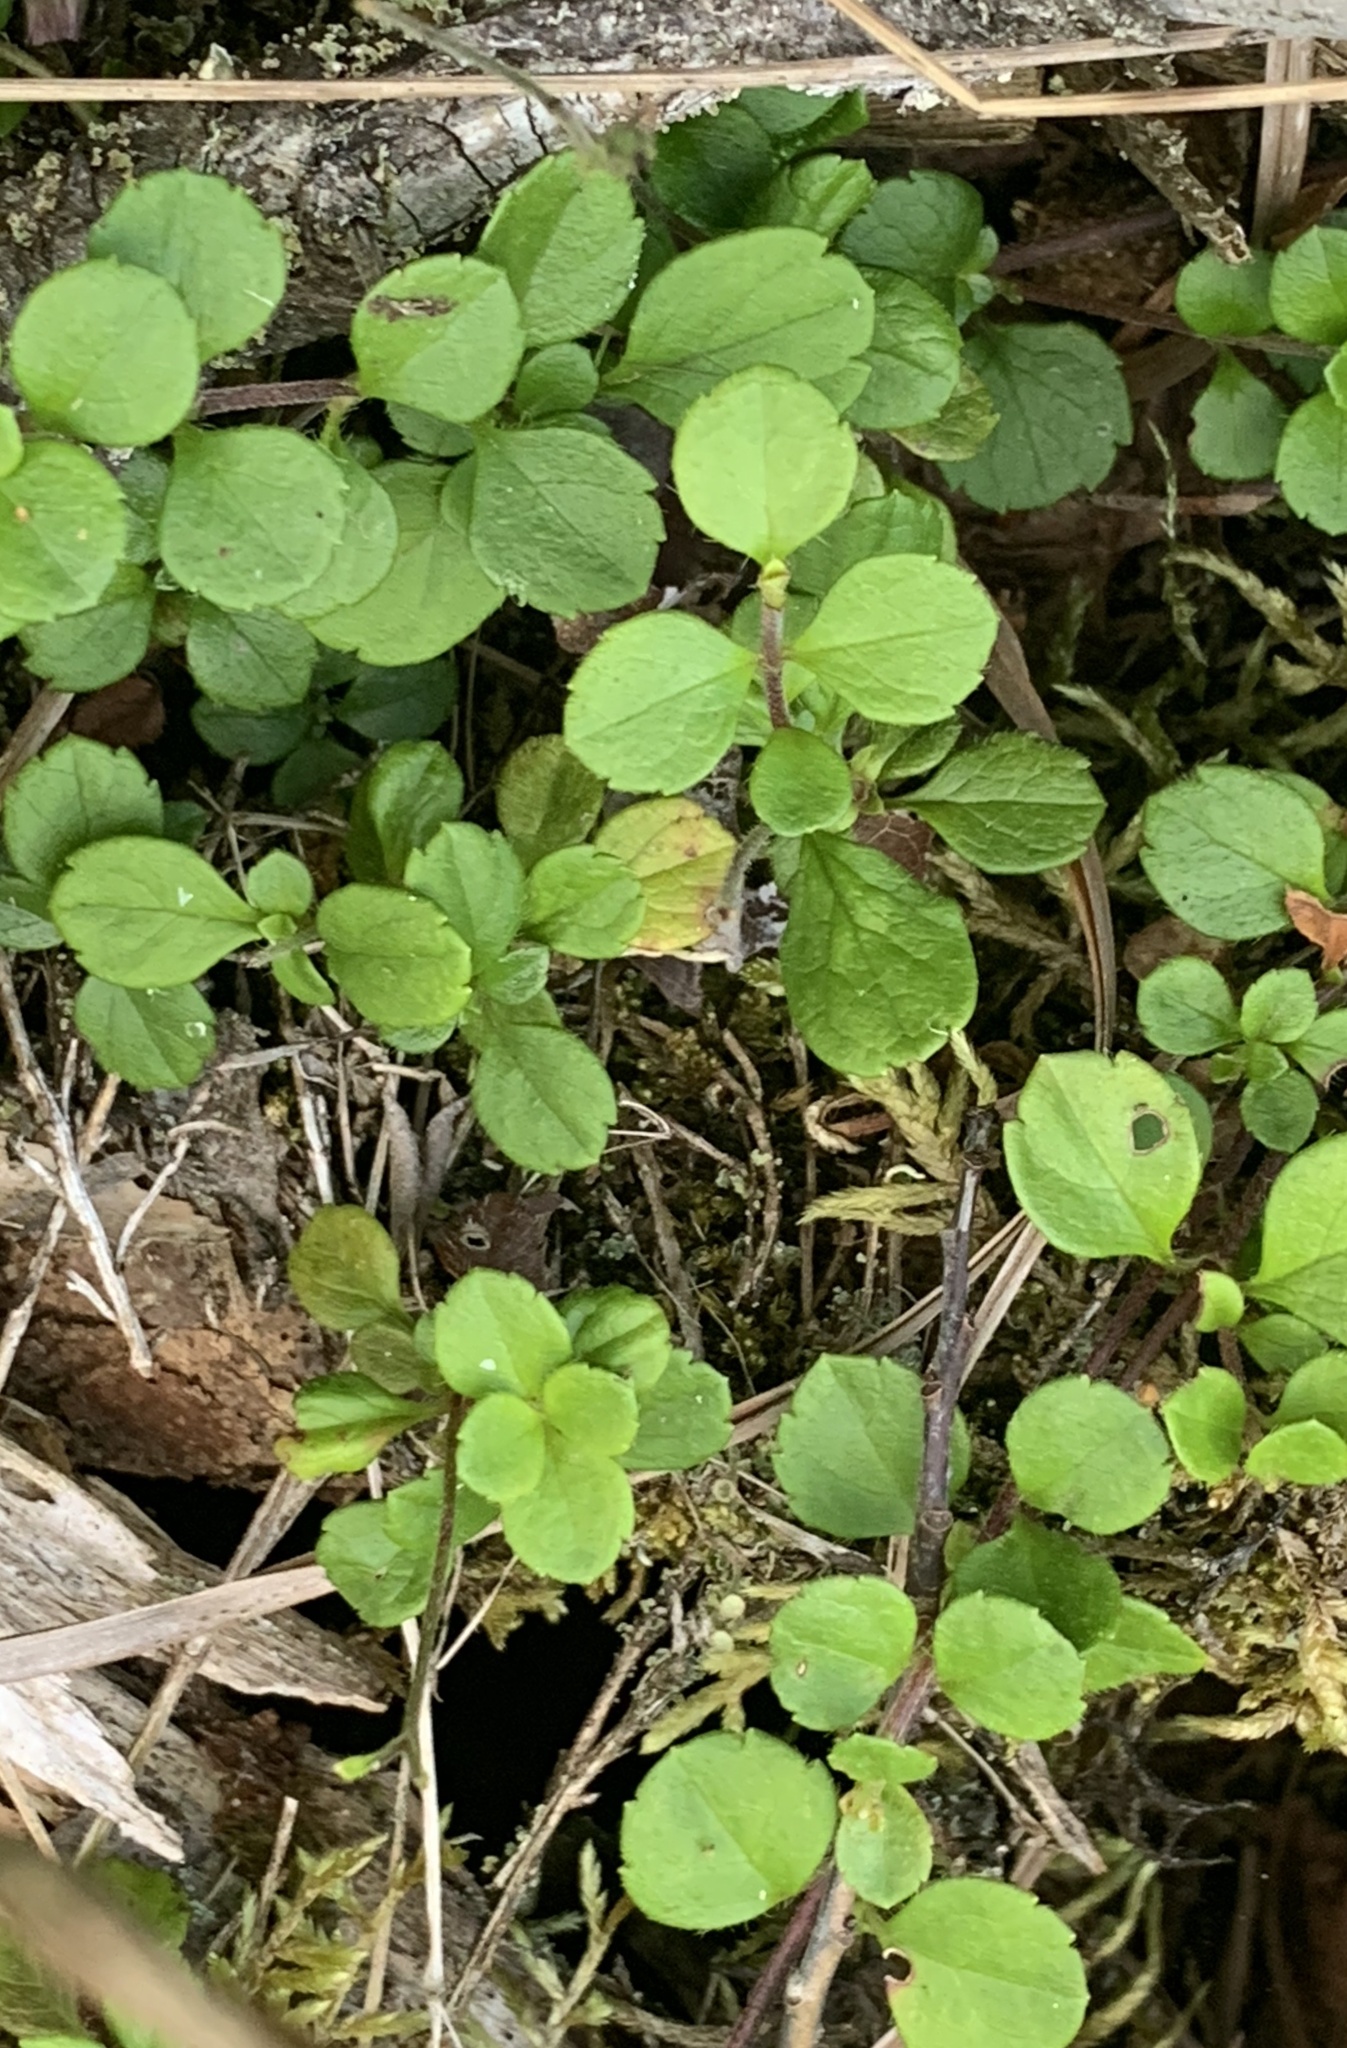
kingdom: Plantae
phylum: Tracheophyta
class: Magnoliopsida
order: Dipsacales
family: Caprifoliaceae
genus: Linnaea
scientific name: Linnaea borealis
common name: Twinflower
